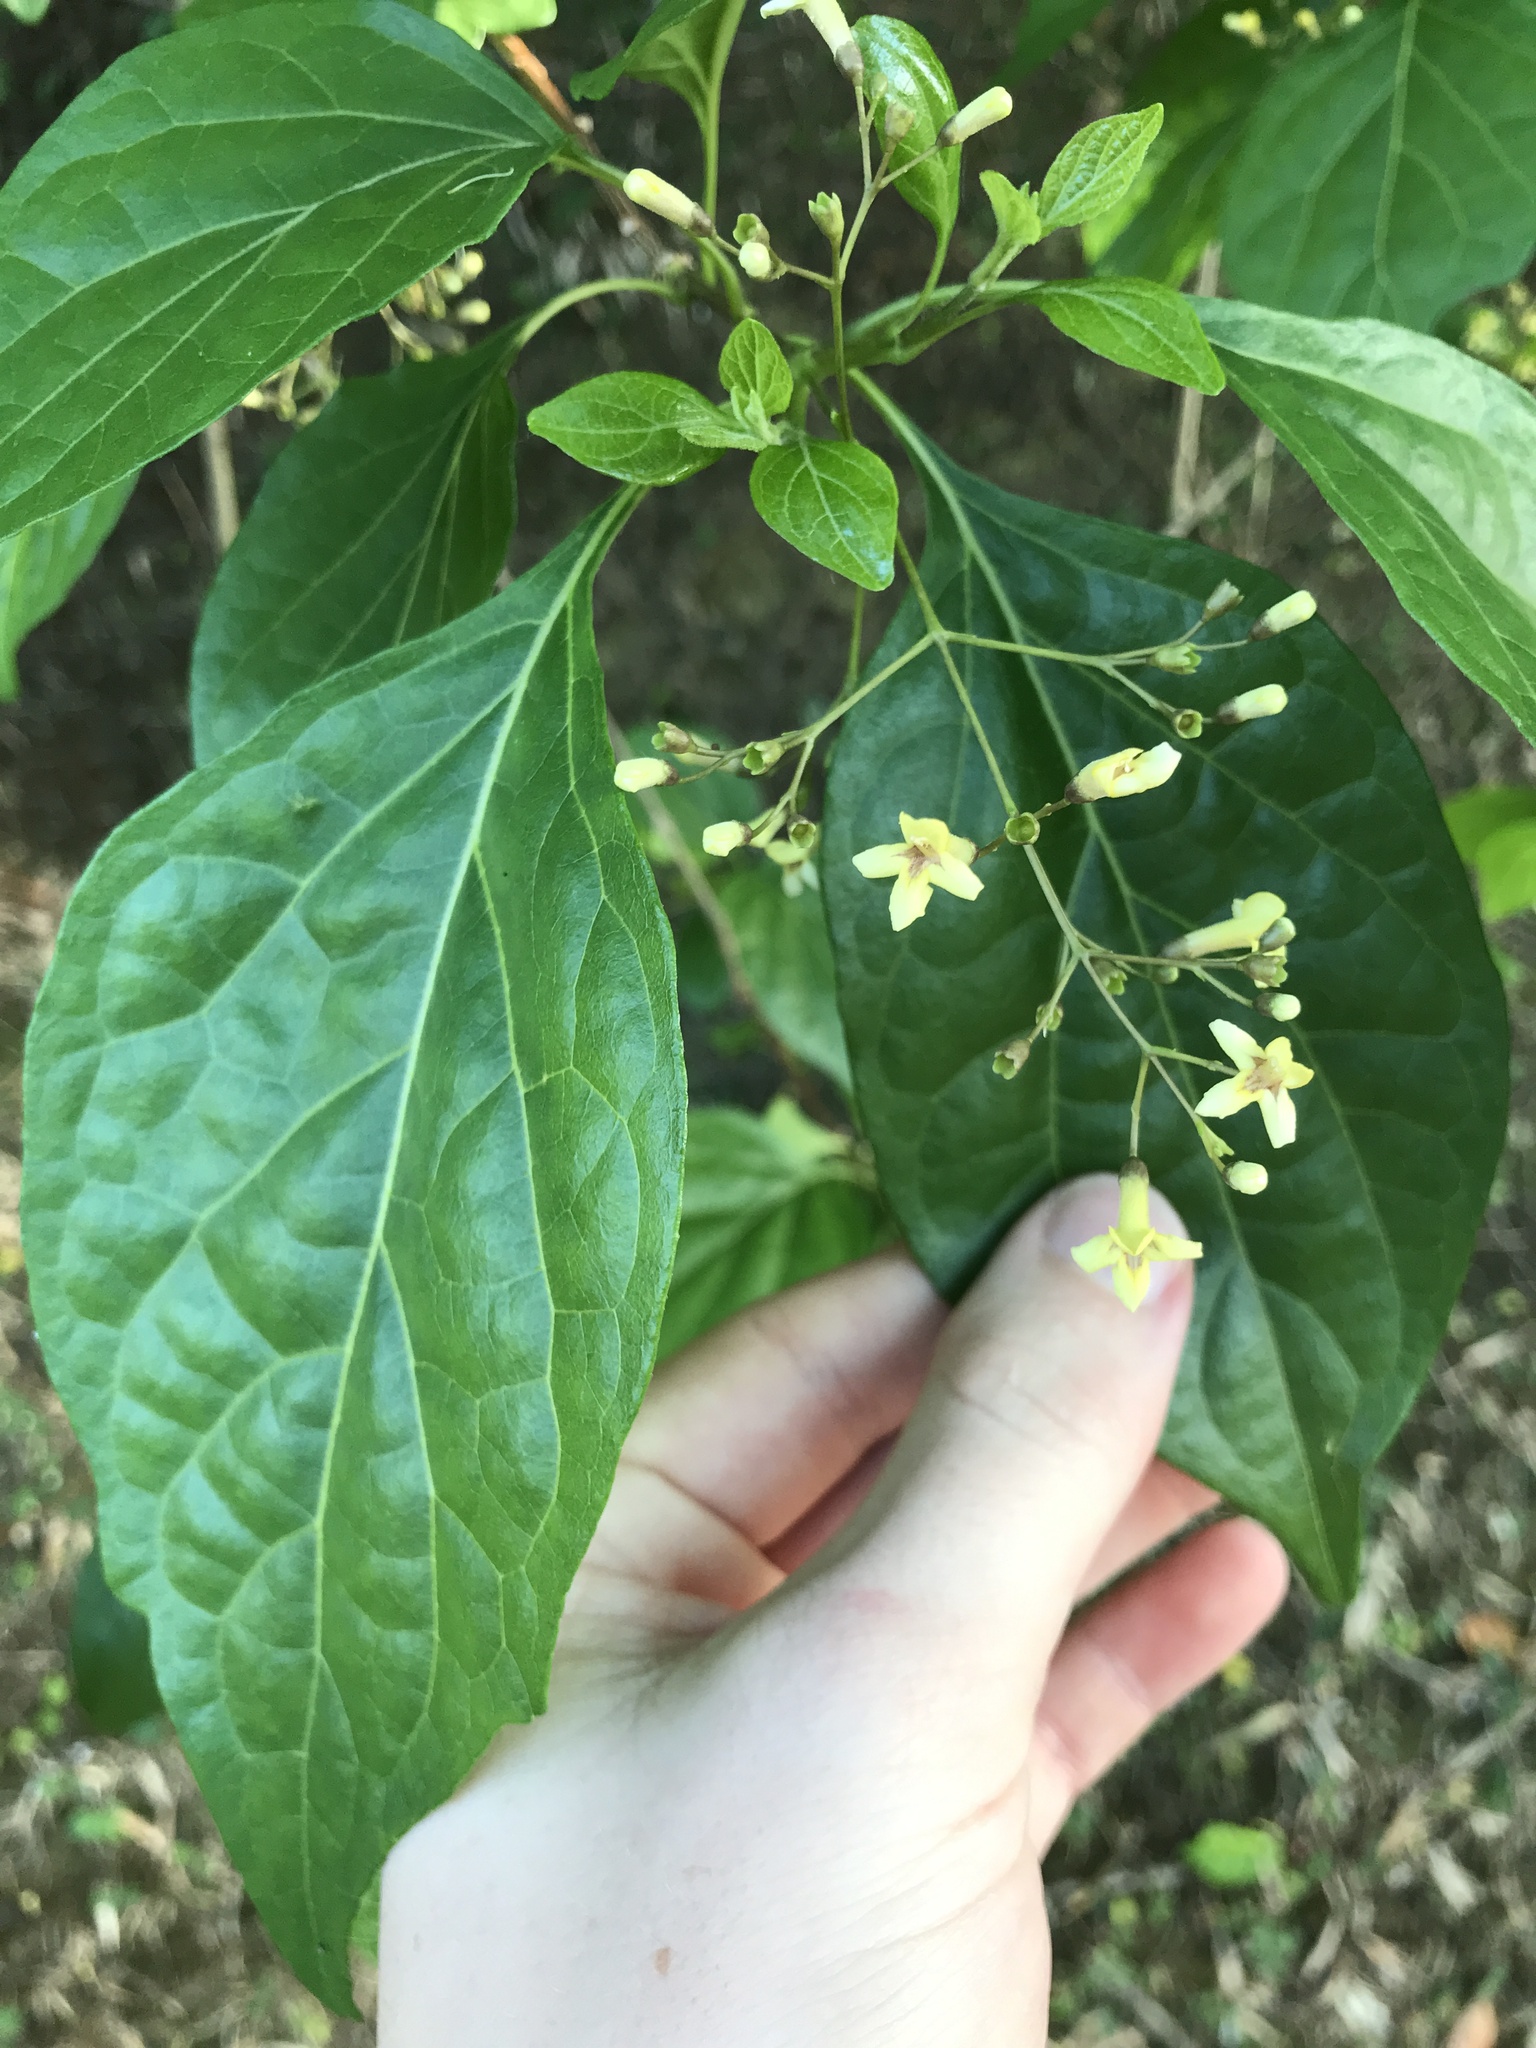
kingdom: Plantae
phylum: Tracheophyta
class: Magnoliopsida
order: Lamiales
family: Lamiaceae
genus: Premna
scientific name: Premna microphylla
